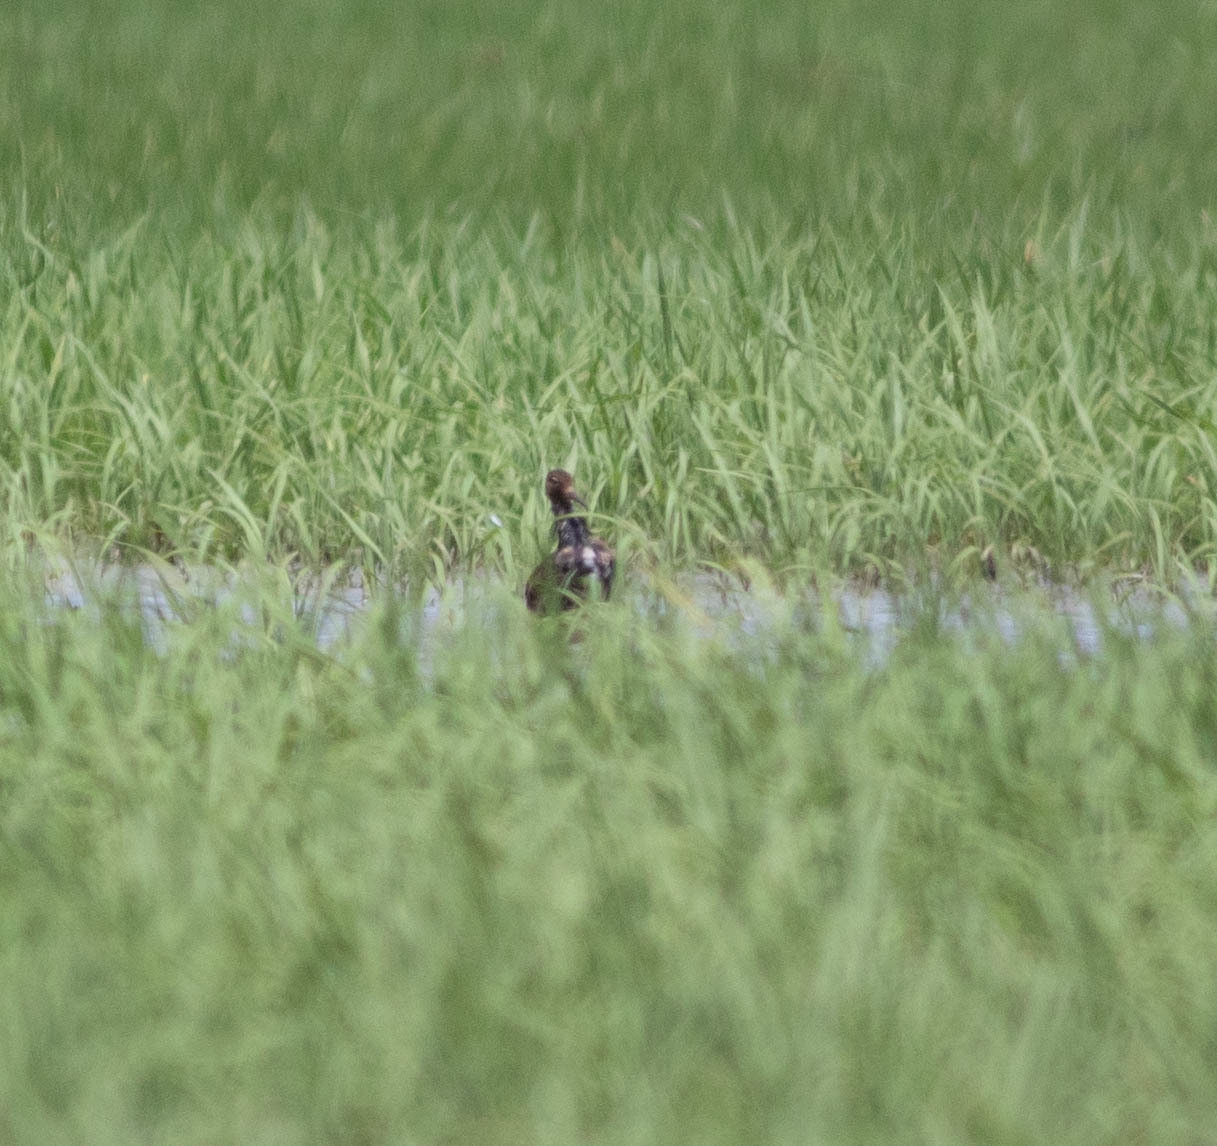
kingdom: Animalia
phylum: Chordata
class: Aves
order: Charadriiformes
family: Scolopacidae
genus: Calidris
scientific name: Calidris pugnax
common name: Ruff
